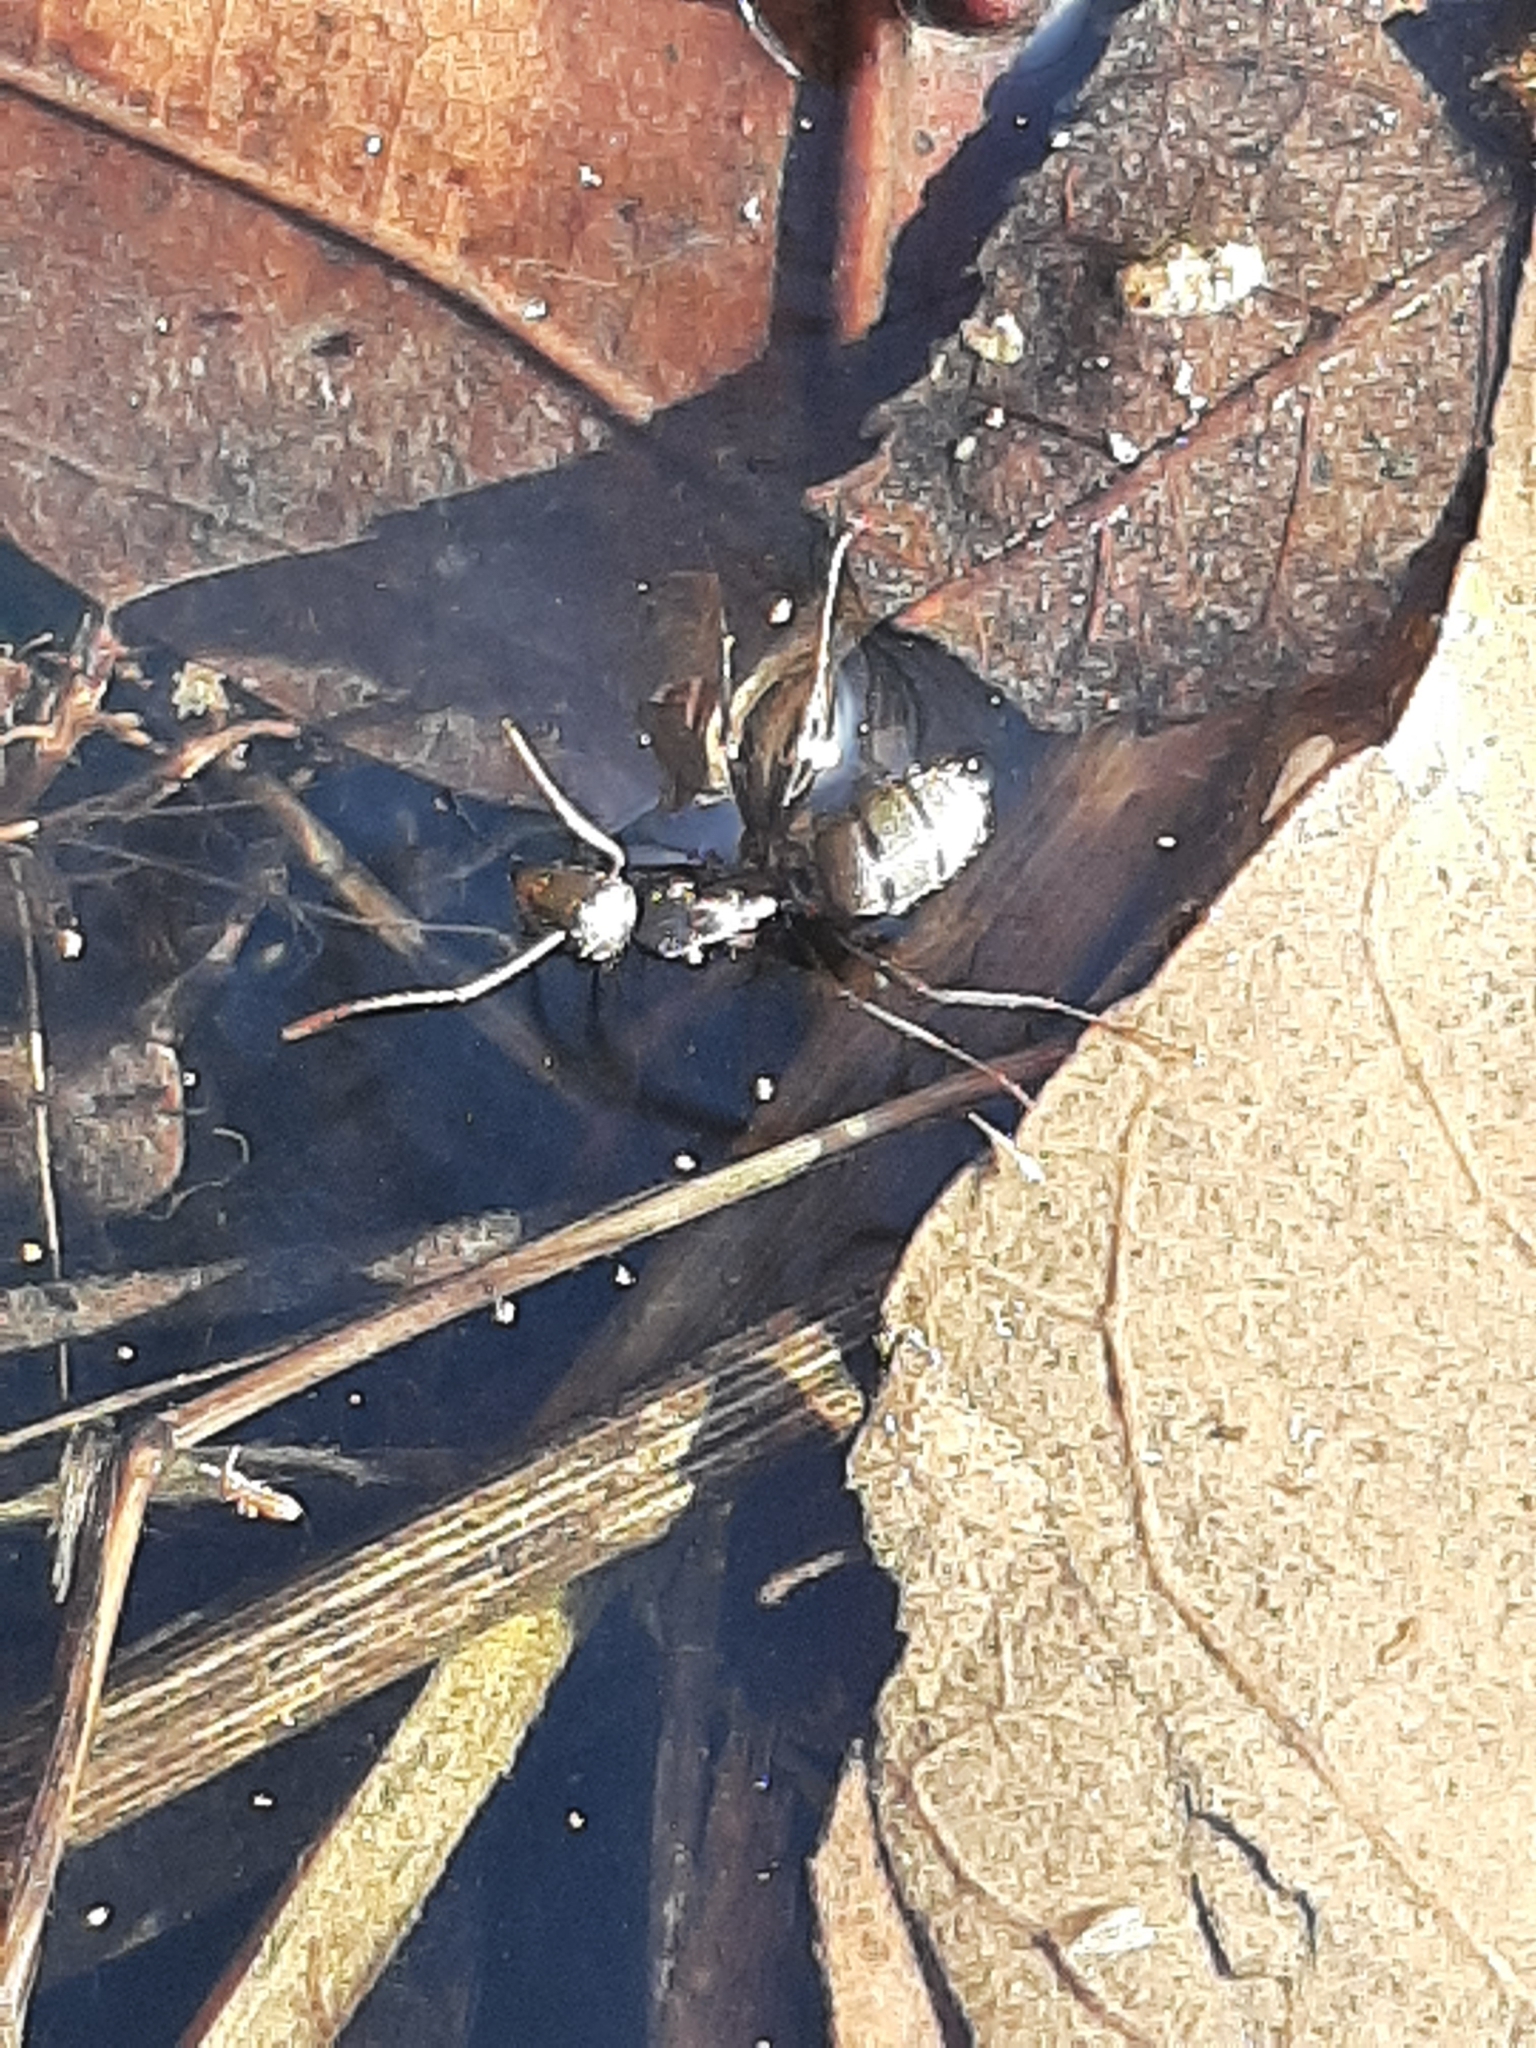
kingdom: Animalia
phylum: Arthropoda
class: Insecta
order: Hymenoptera
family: Formicidae
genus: Camponotus
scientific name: Camponotus pennsylvanicus
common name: Black carpenter ant
